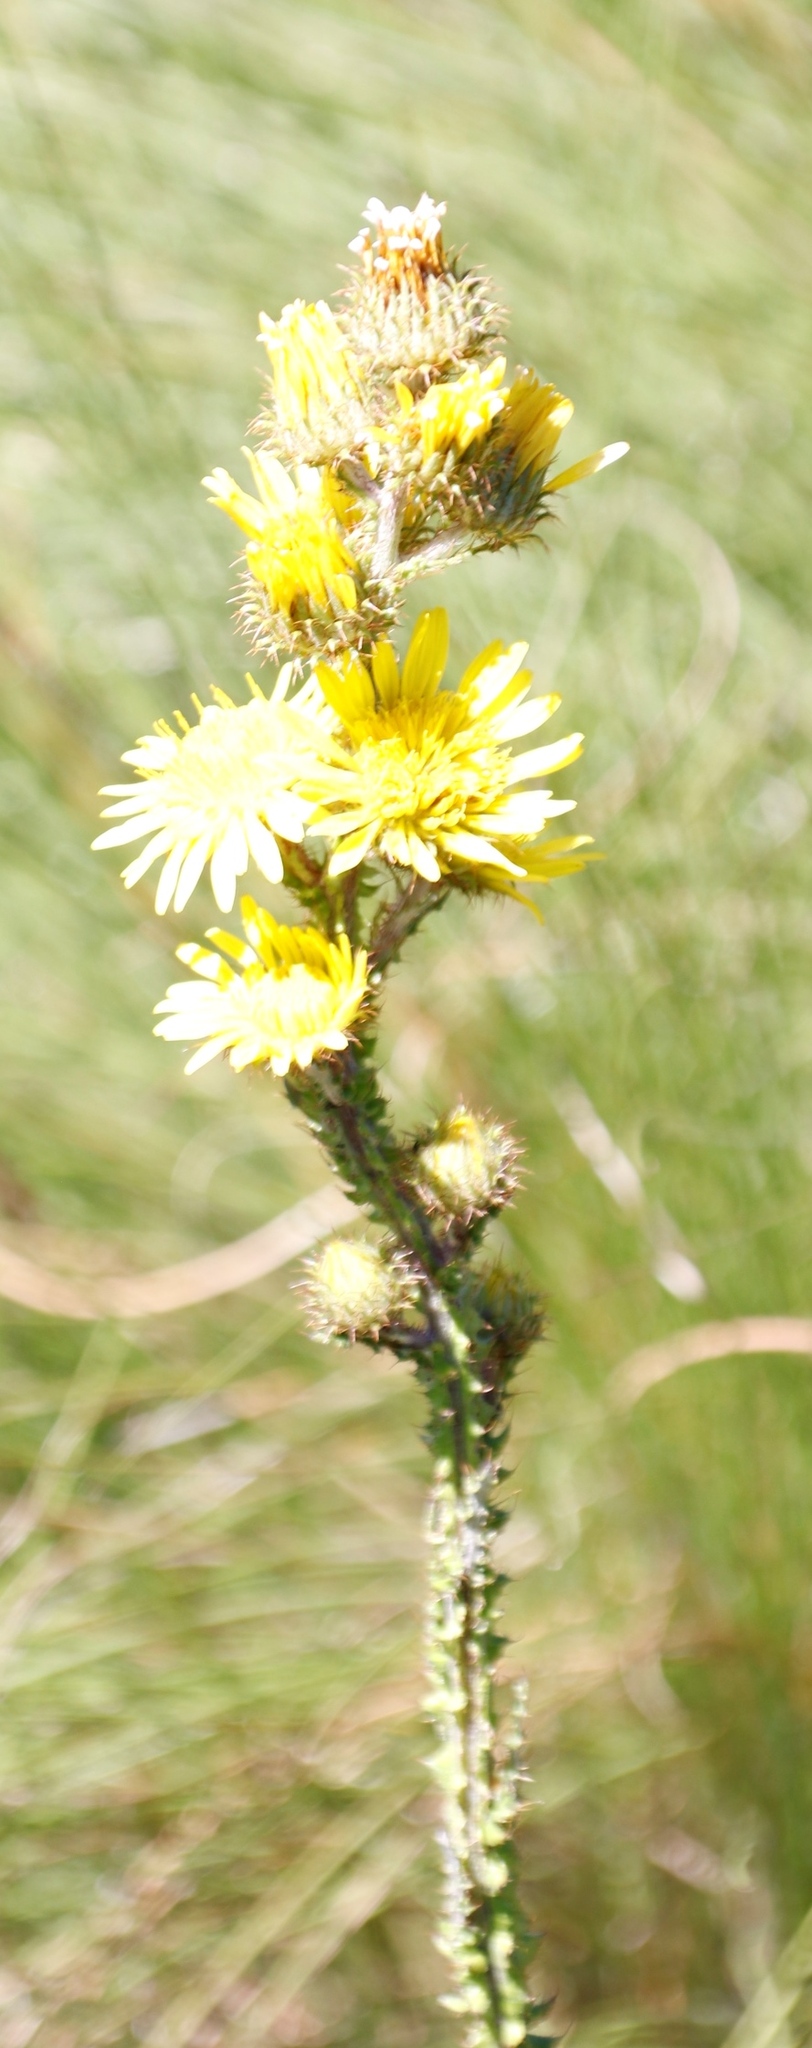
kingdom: Plantae
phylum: Tracheophyta
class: Magnoliopsida
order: Asterales
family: Asteraceae
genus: Berkheya
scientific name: Berkheya rhapontica
